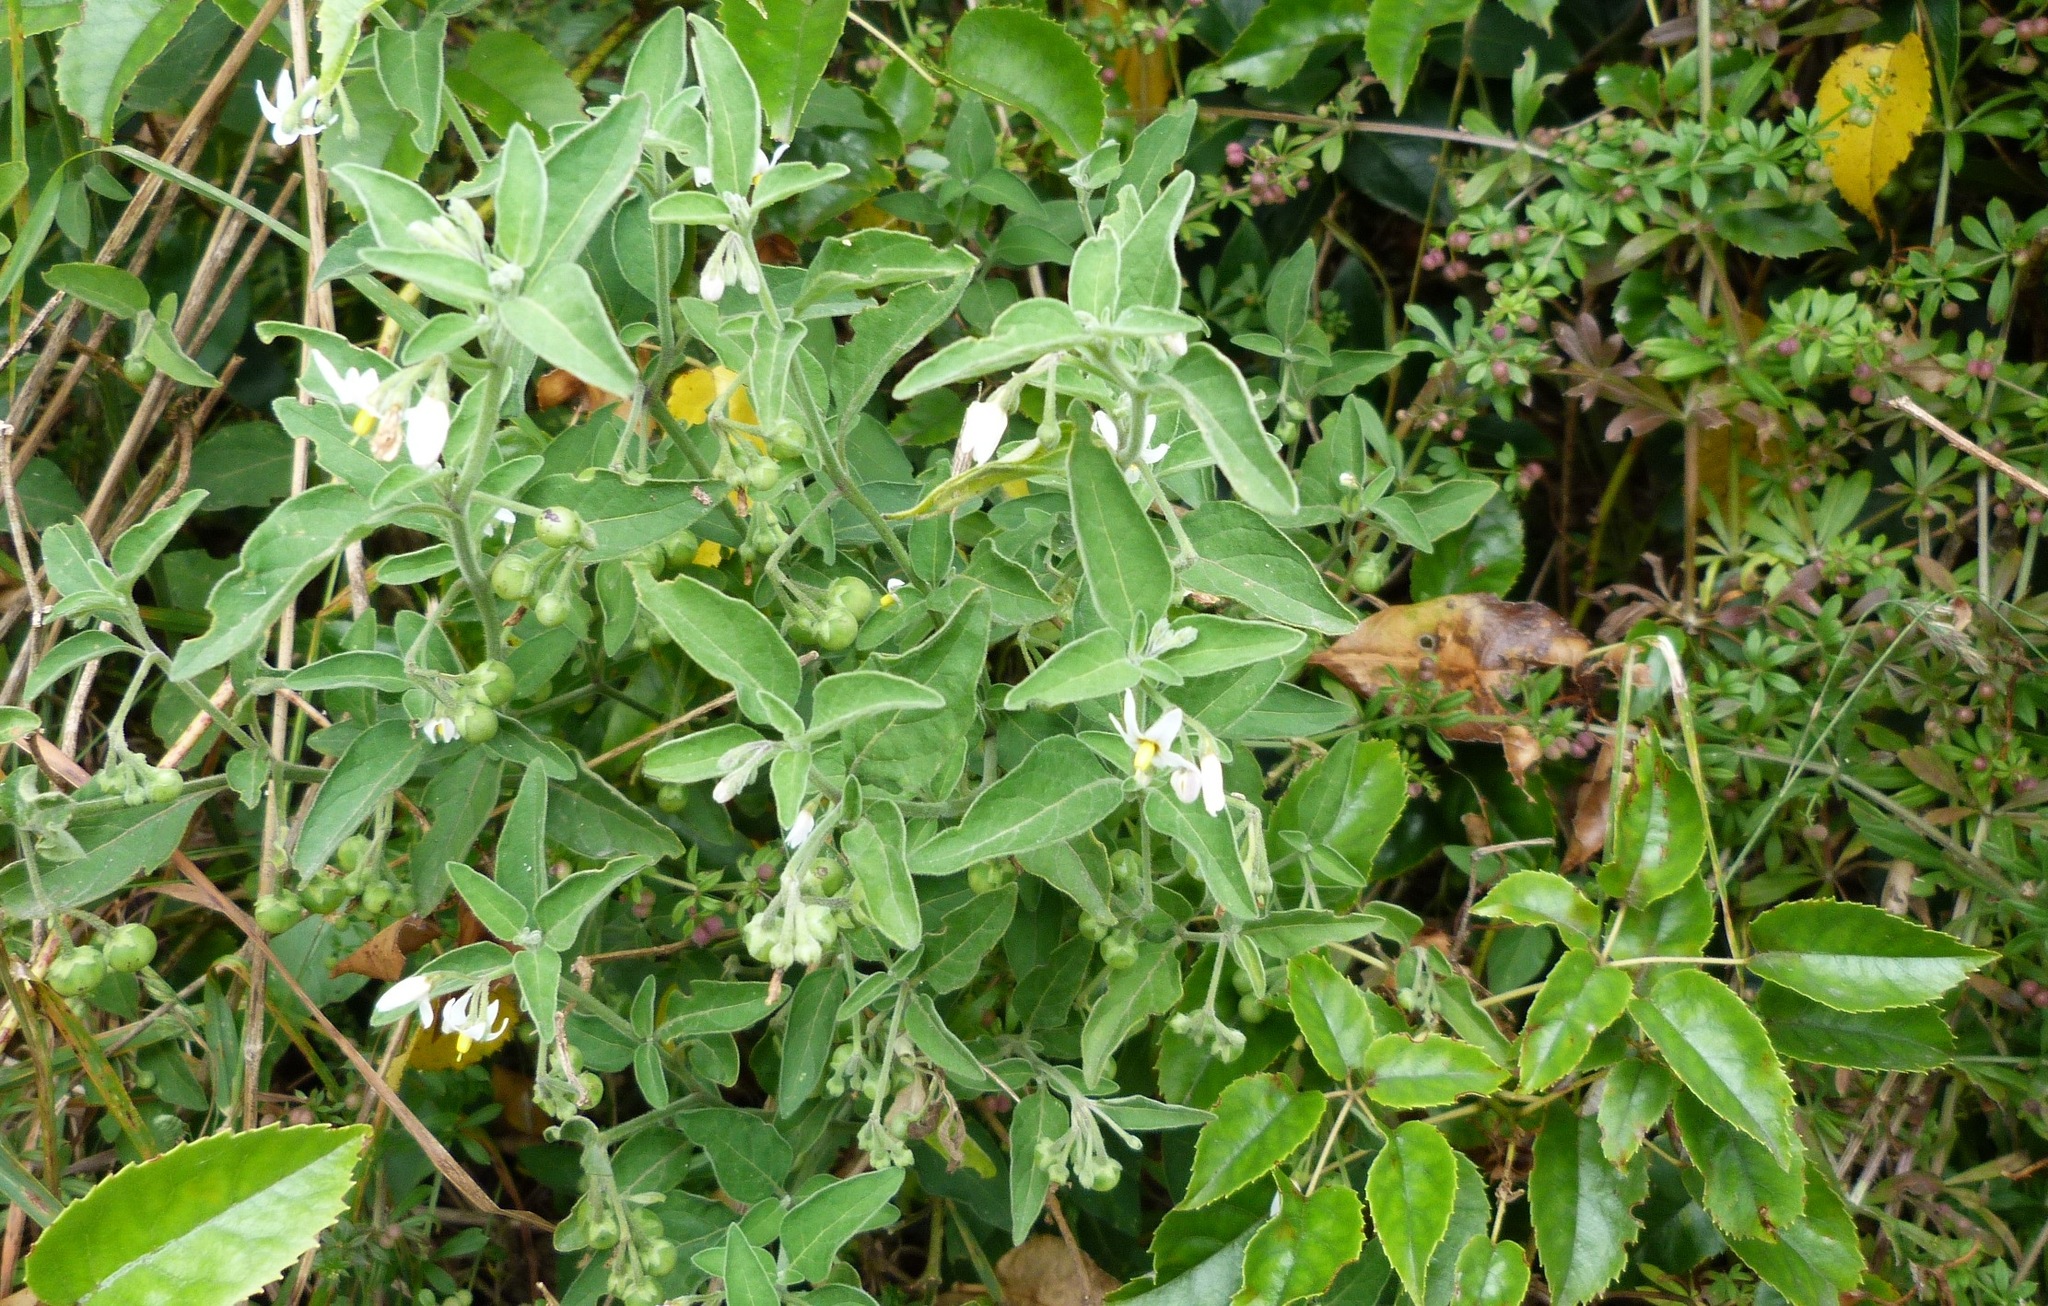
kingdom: Plantae
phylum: Tracheophyta
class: Magnoliopsida
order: Solanales
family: Solanaceae
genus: Solanum
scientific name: Solanum chenopodioides
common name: Tall nightshade
